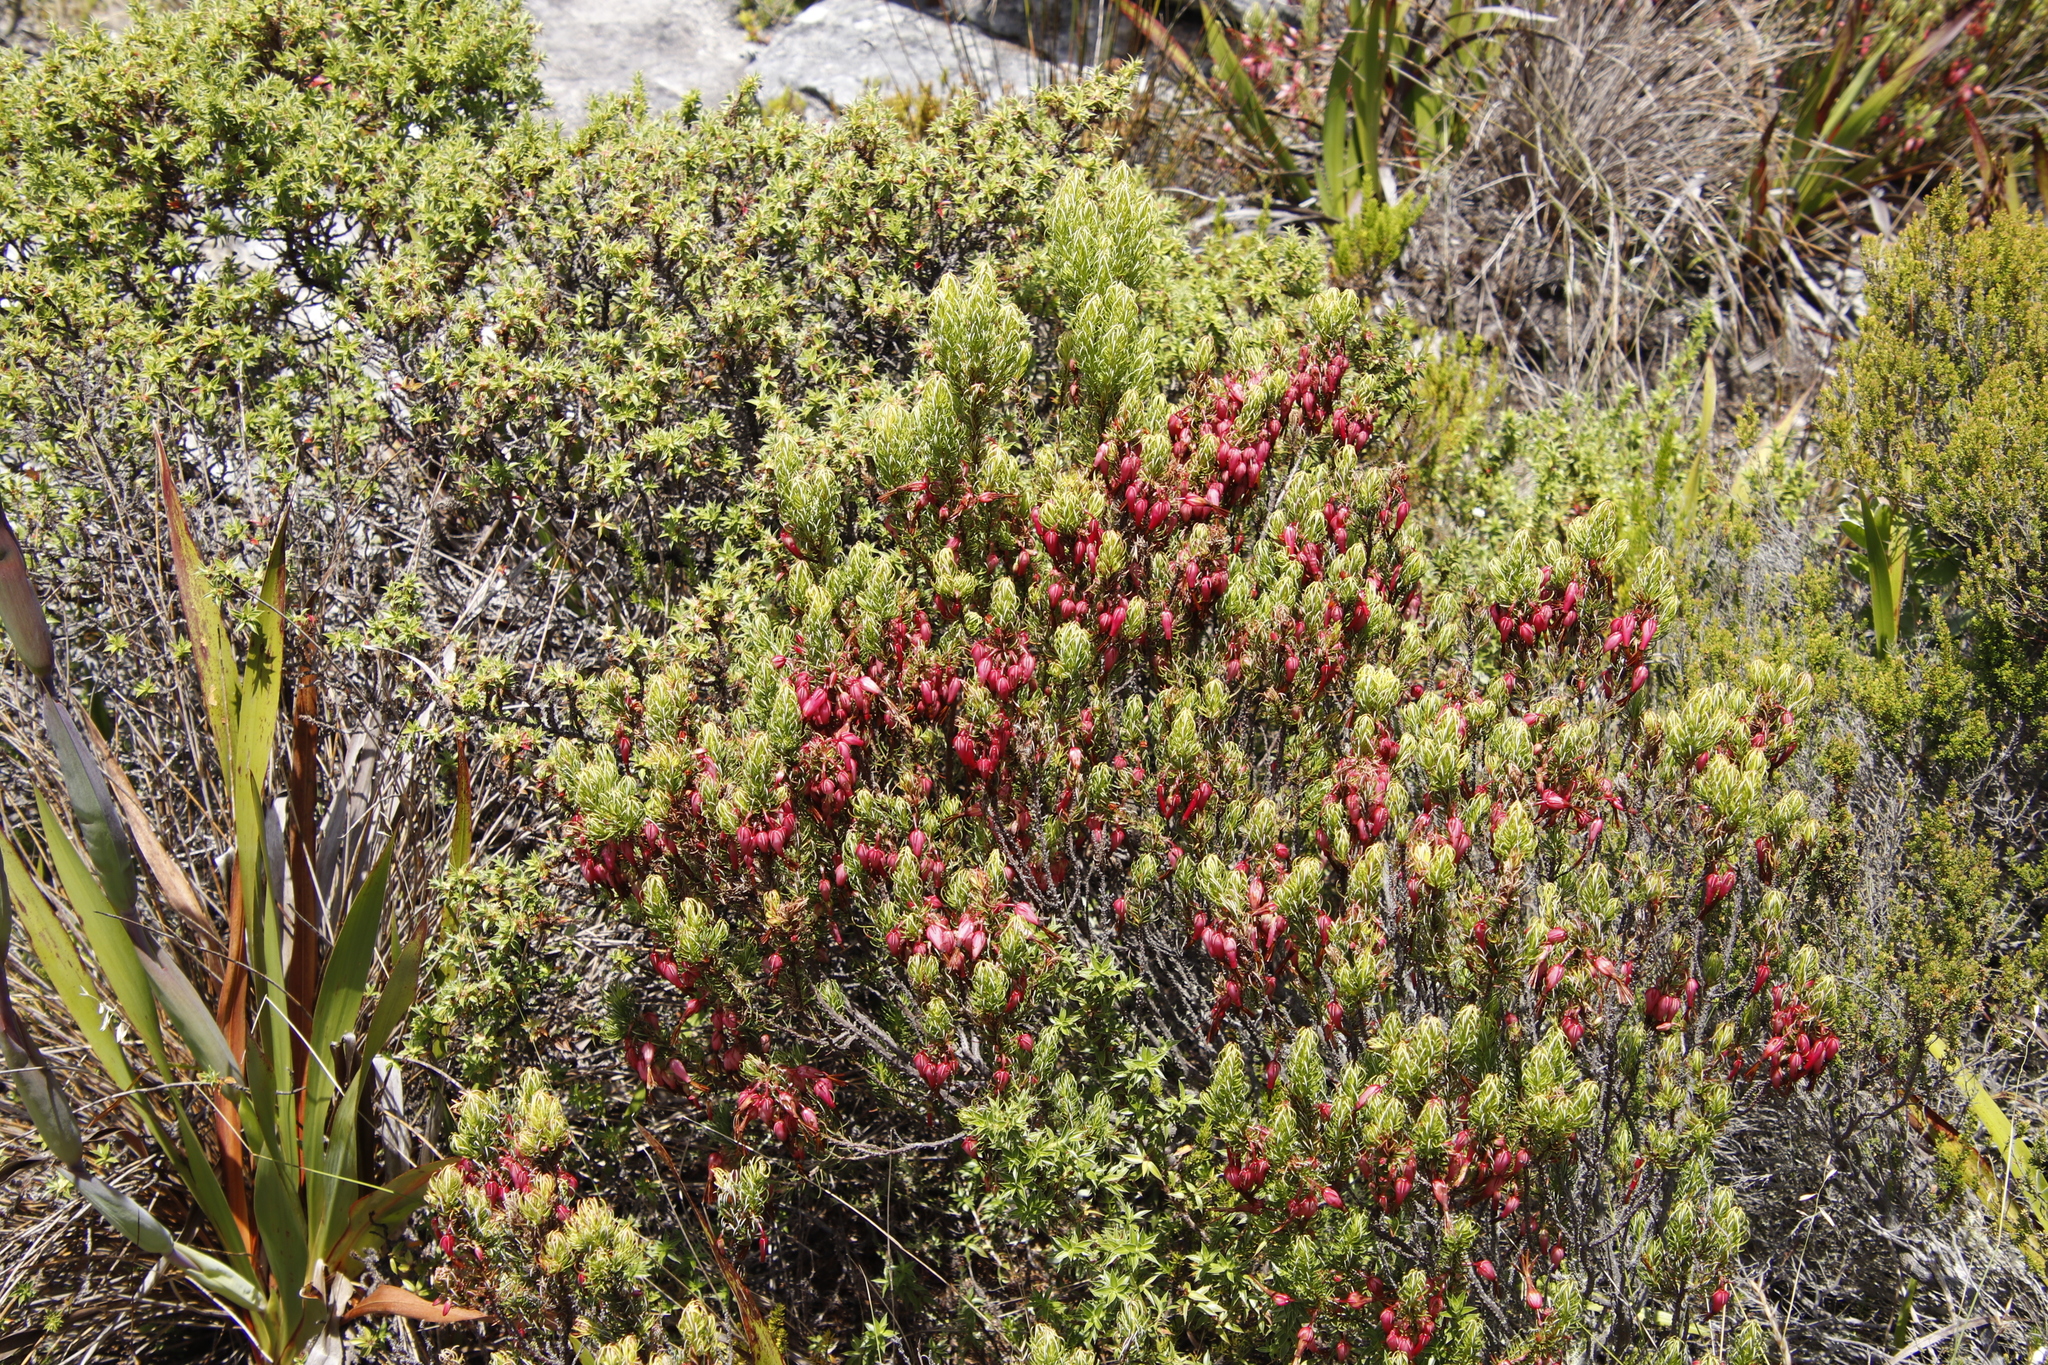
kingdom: Plantae
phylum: Tracheophyta
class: Magnoliopsida
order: Ericales
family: Ericaceae
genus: Erica
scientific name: Erica plukenetii
